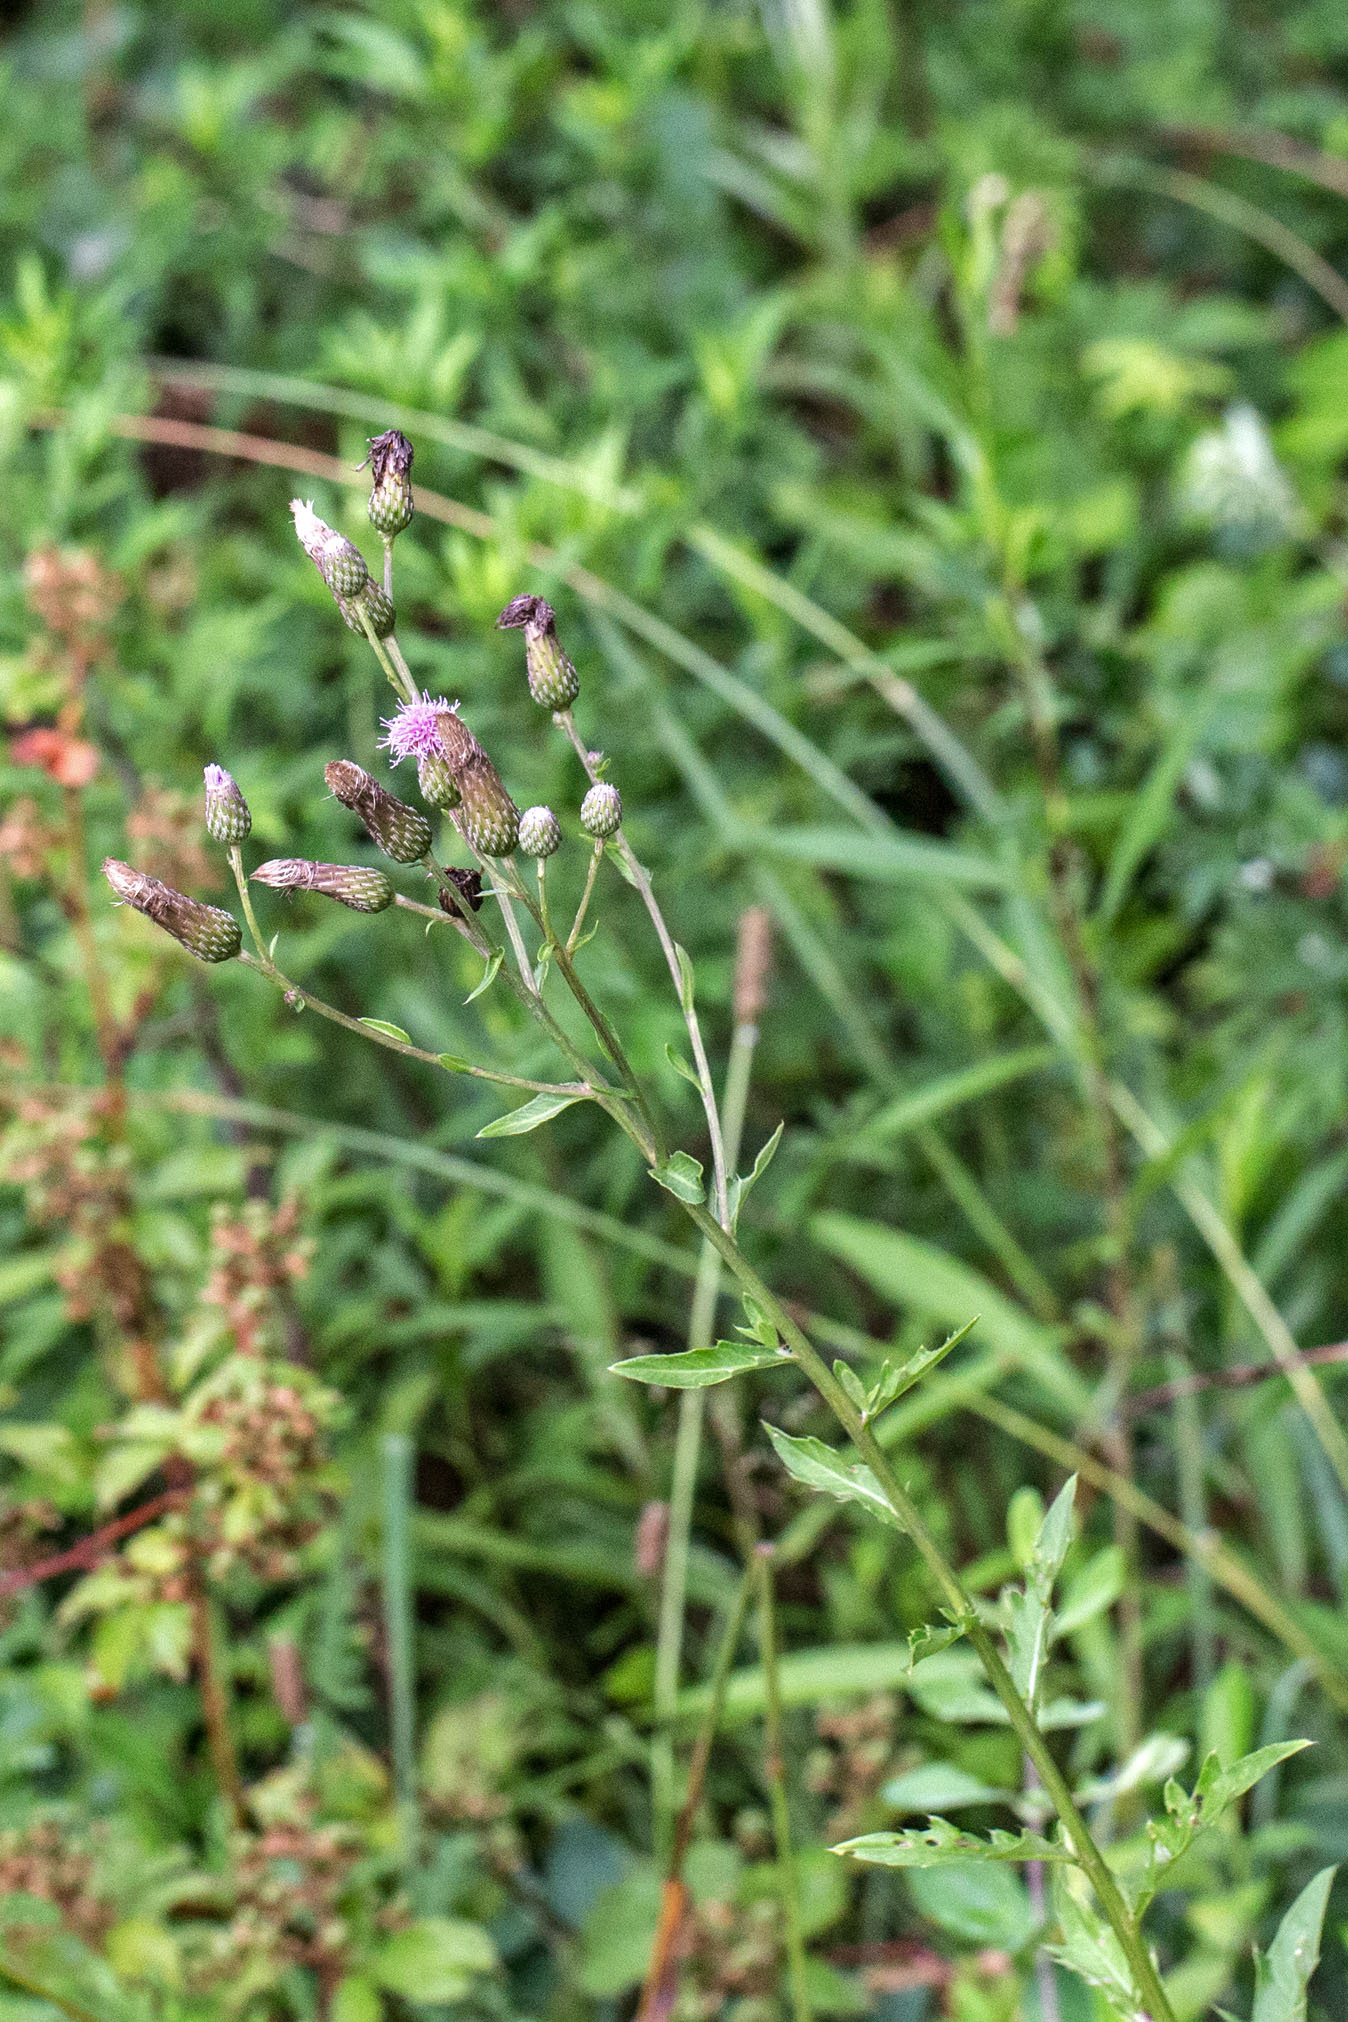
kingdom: Plantae
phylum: Tracheophyta
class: Magnoliopsida
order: Asterales
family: Asteraceae
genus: Cirsium
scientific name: Cirsium arvense
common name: Creeping thistle
